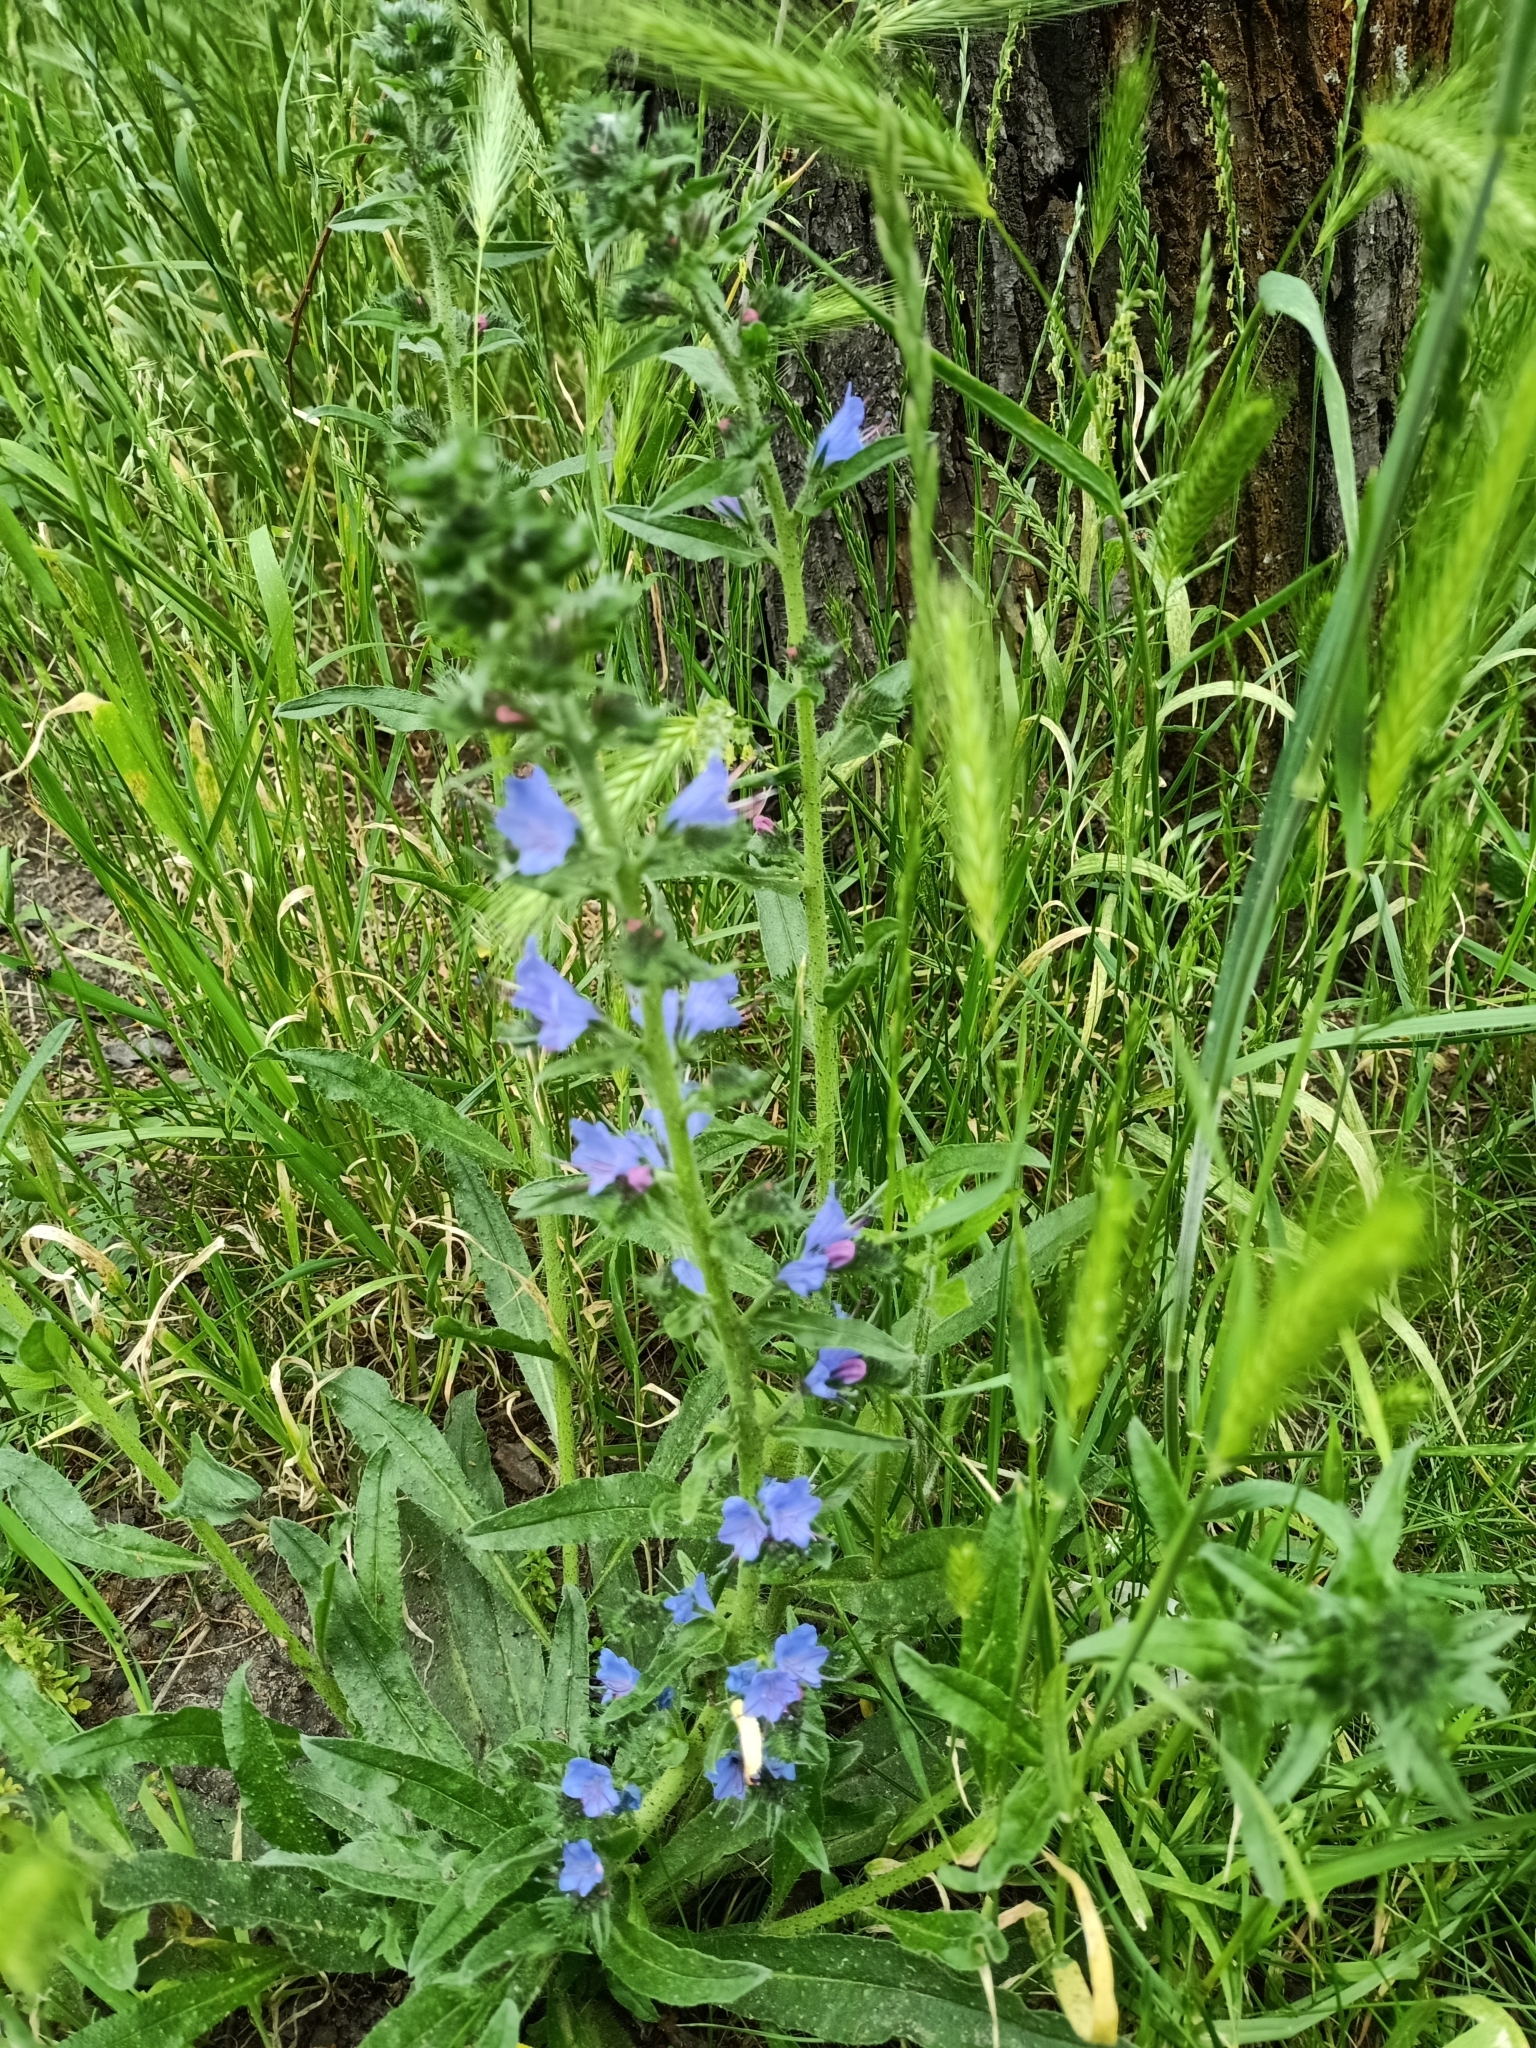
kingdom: Plantae
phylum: Tracheophyta
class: Magnoliopsida
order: Boraginales
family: Boraginaceae
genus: Echium
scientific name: Echium vulgare
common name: Common viper's bugloss
